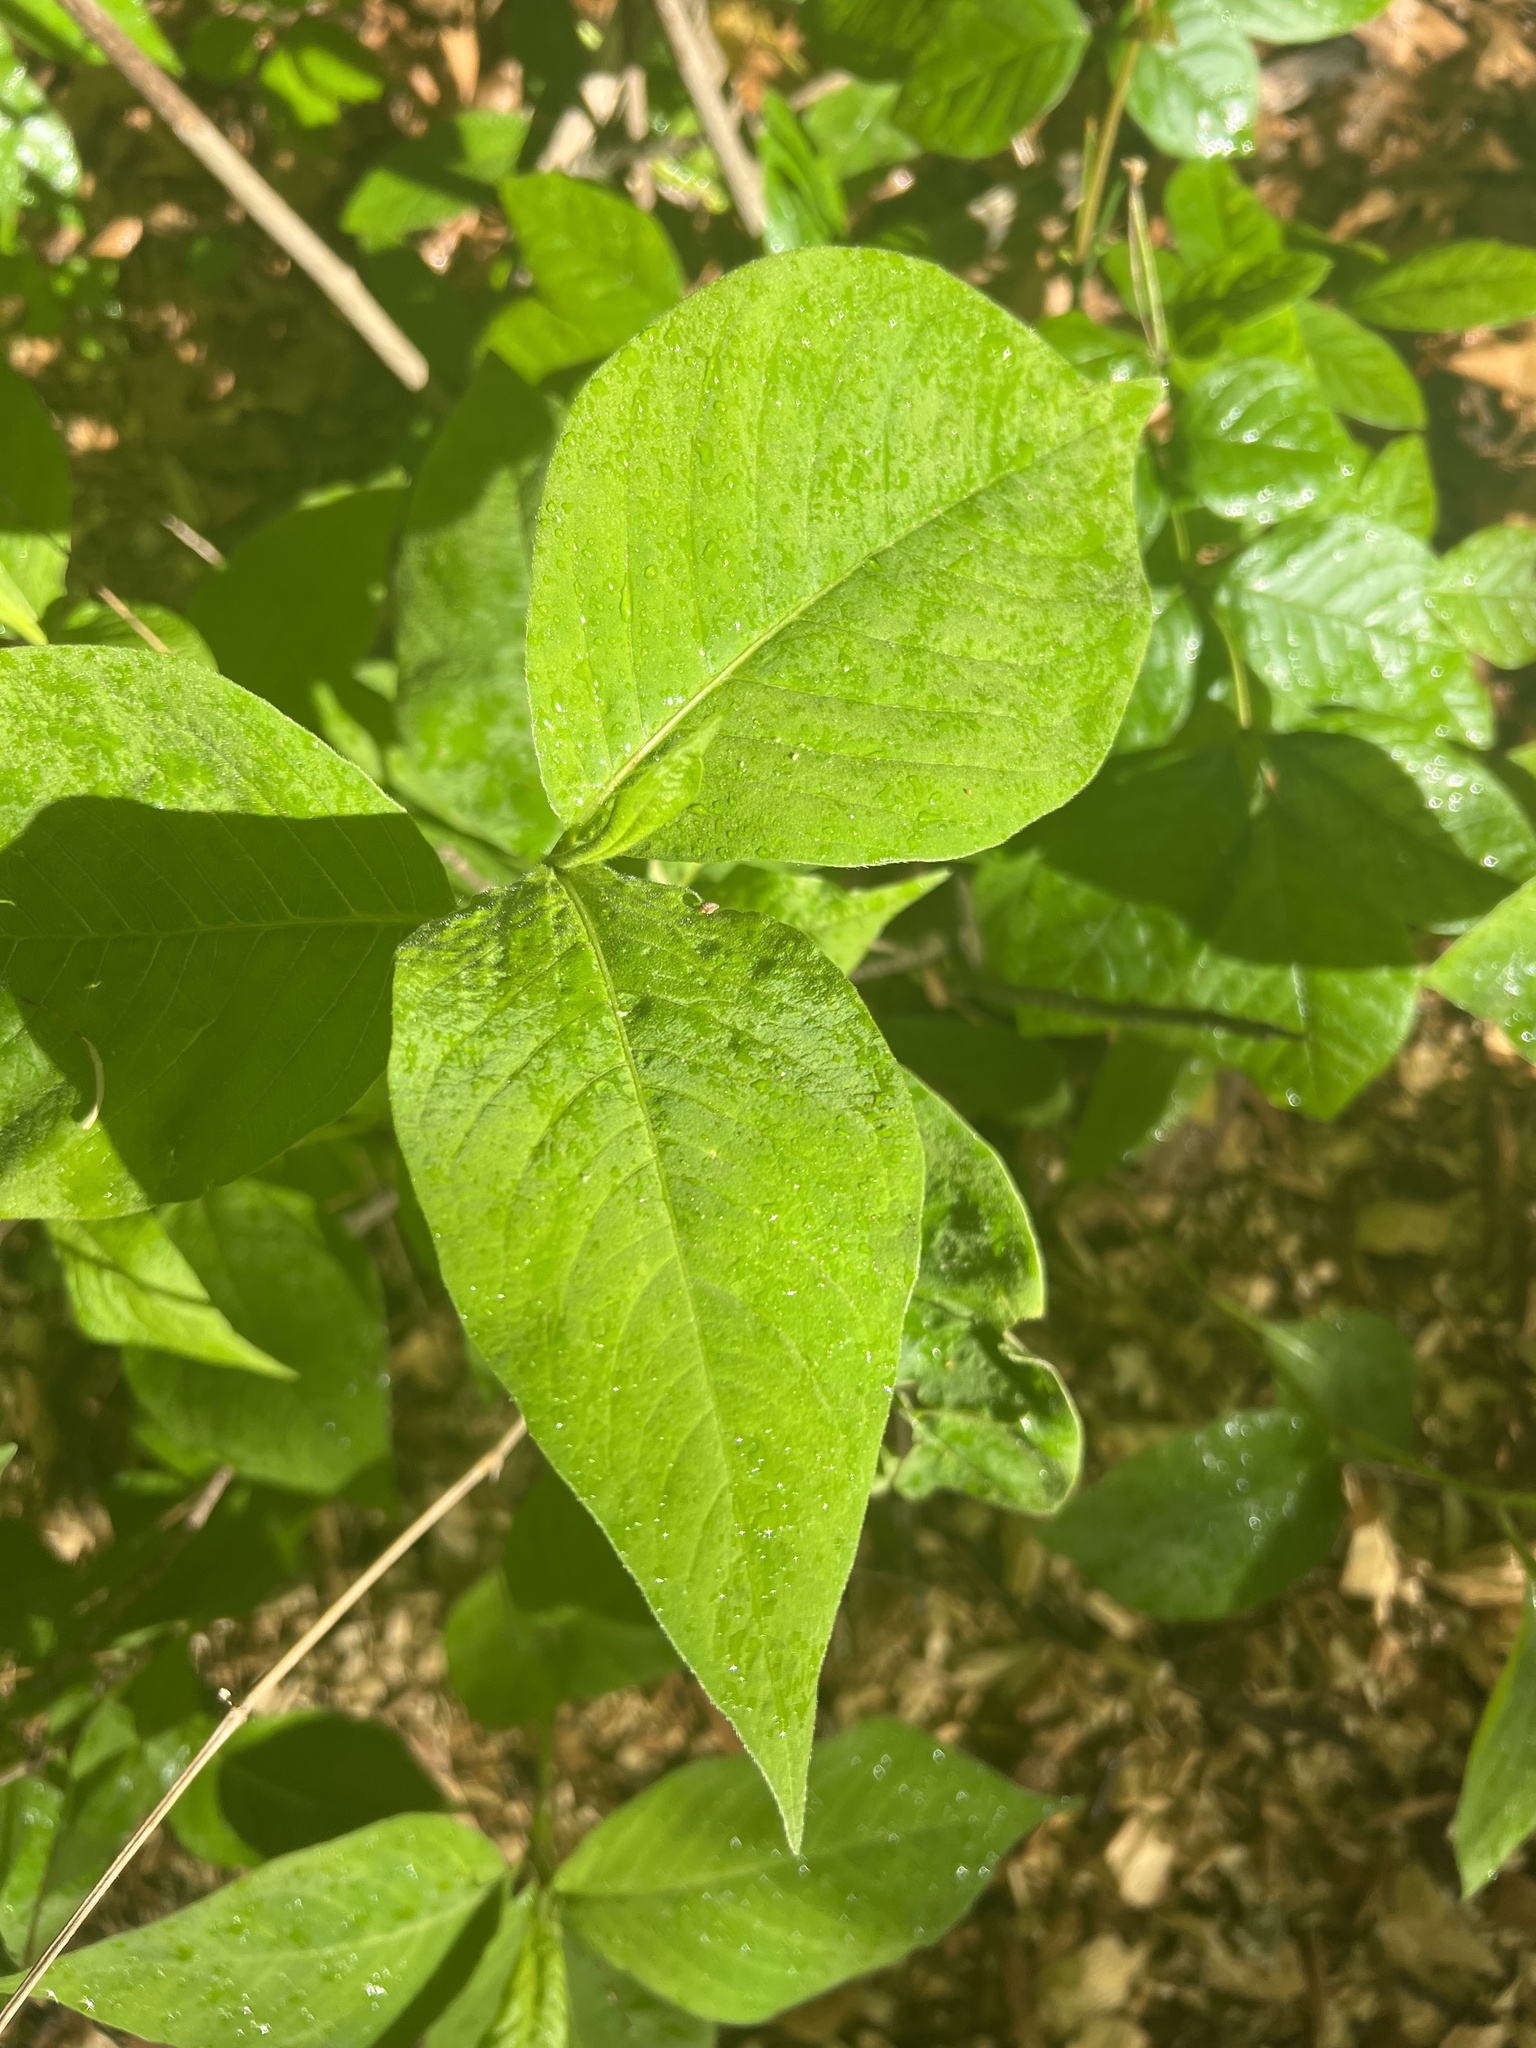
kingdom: Plantae
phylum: Tracheophyta
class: Magnoliopsida
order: Caryophyllales
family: Polygonaceae
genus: Persicaria
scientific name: Persicaria virginiana
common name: Jumpseed
